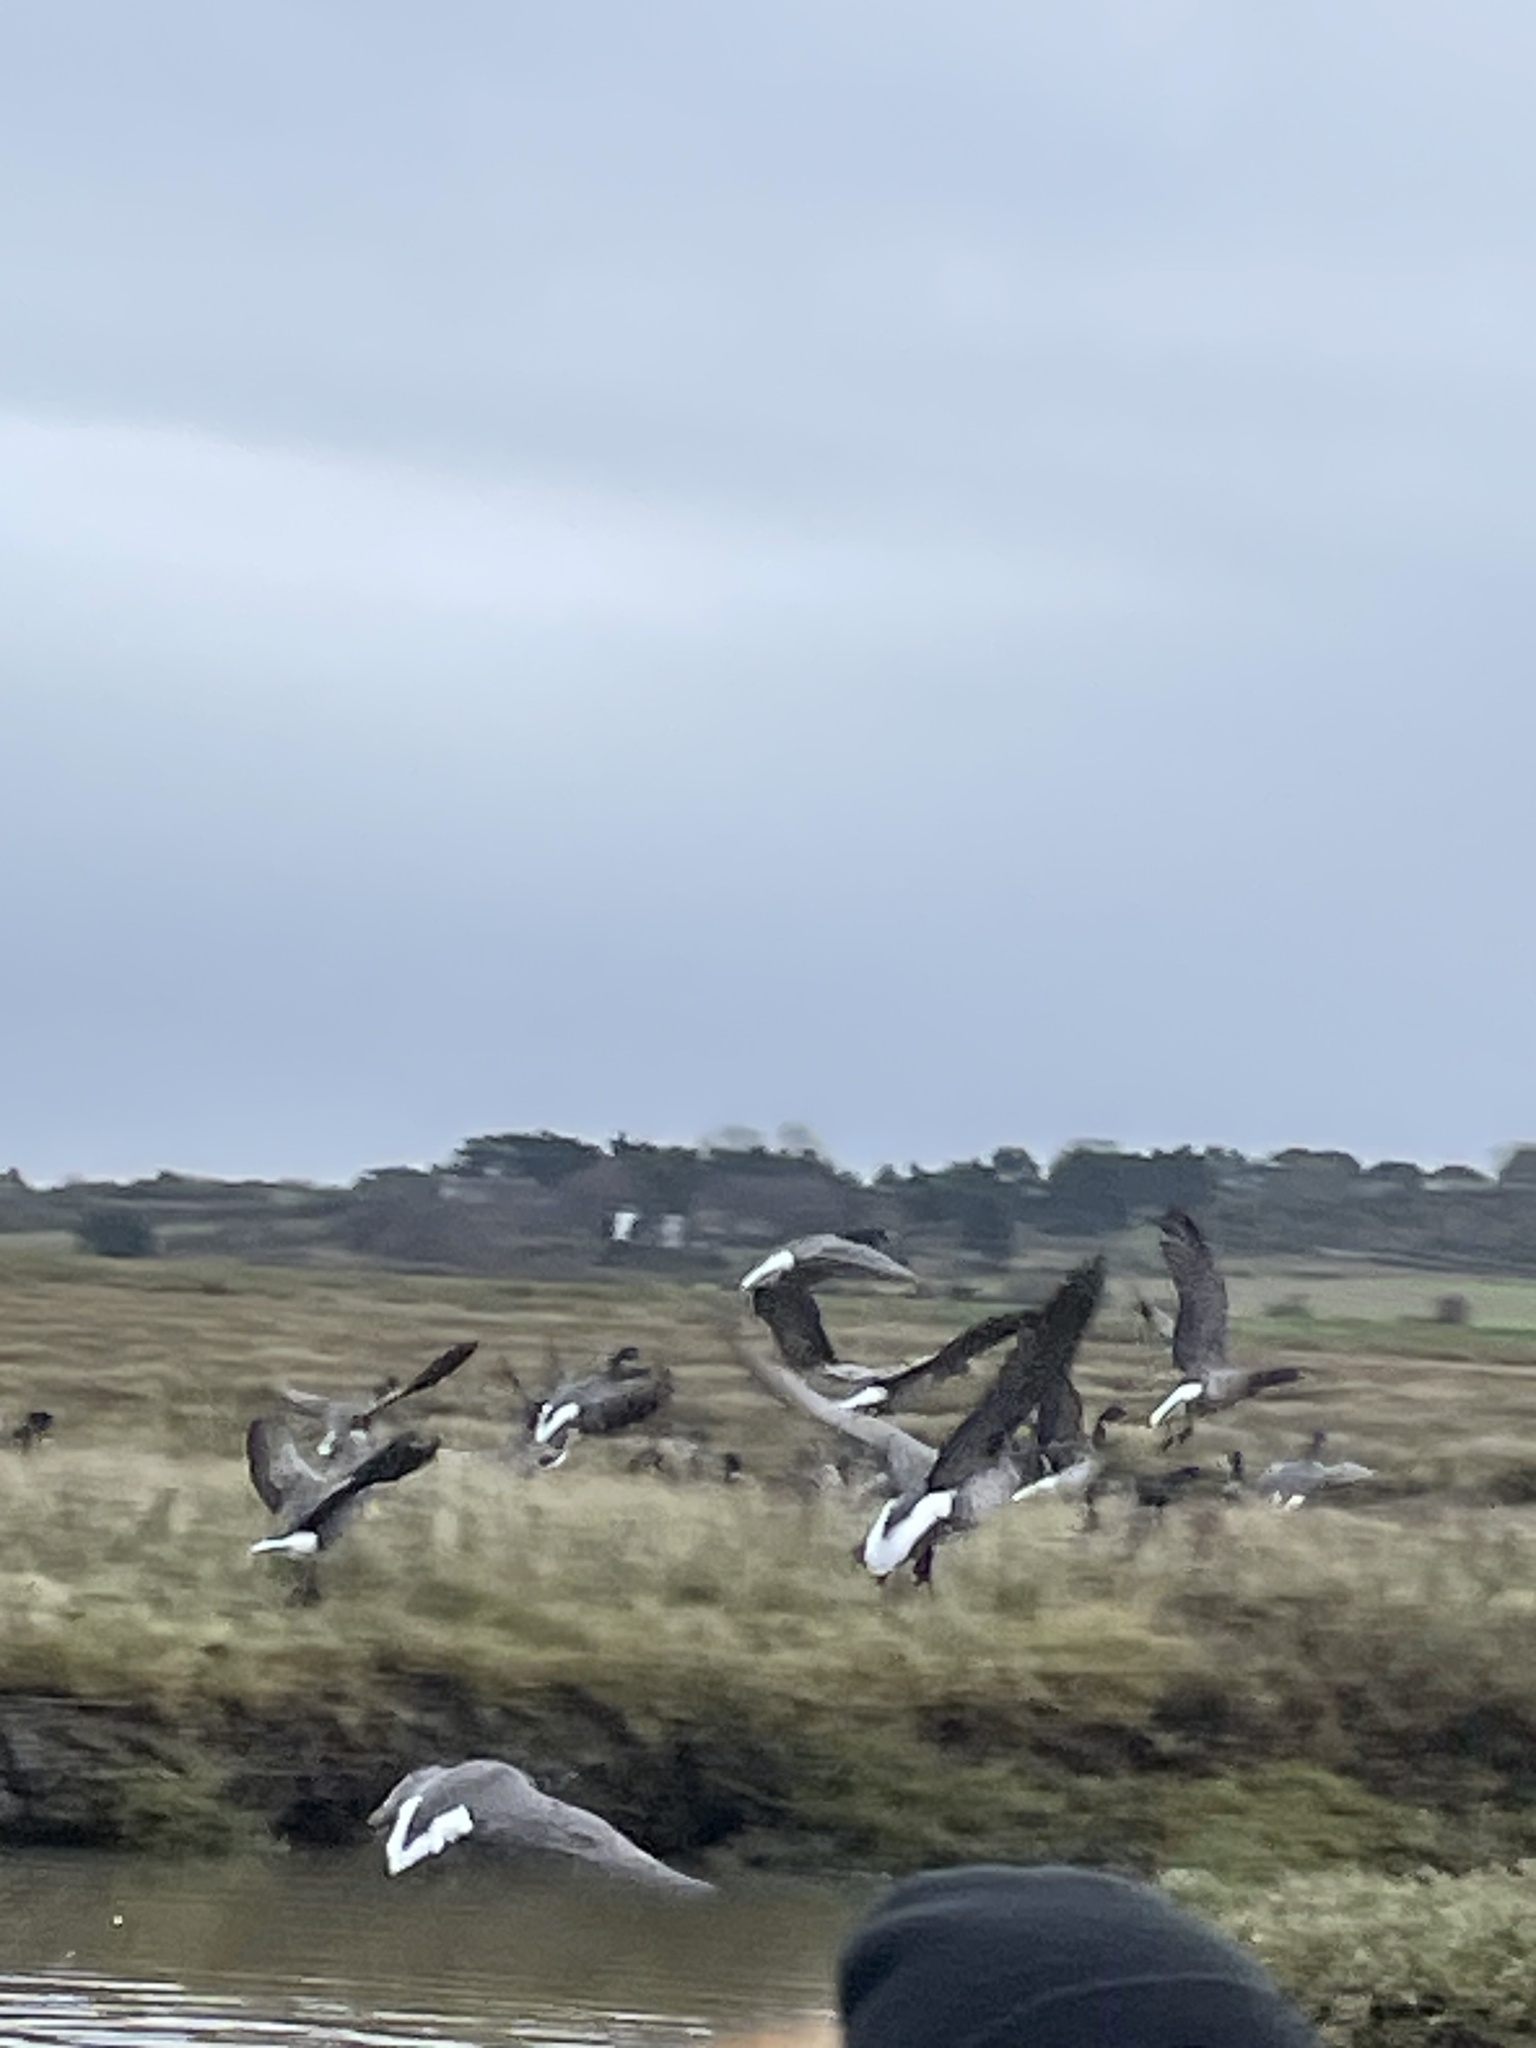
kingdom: Animalia
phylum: Chordata
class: Aves
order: Anseriformes
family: Anatidae
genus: Branta
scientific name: Branta bernicla
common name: Brant goose
